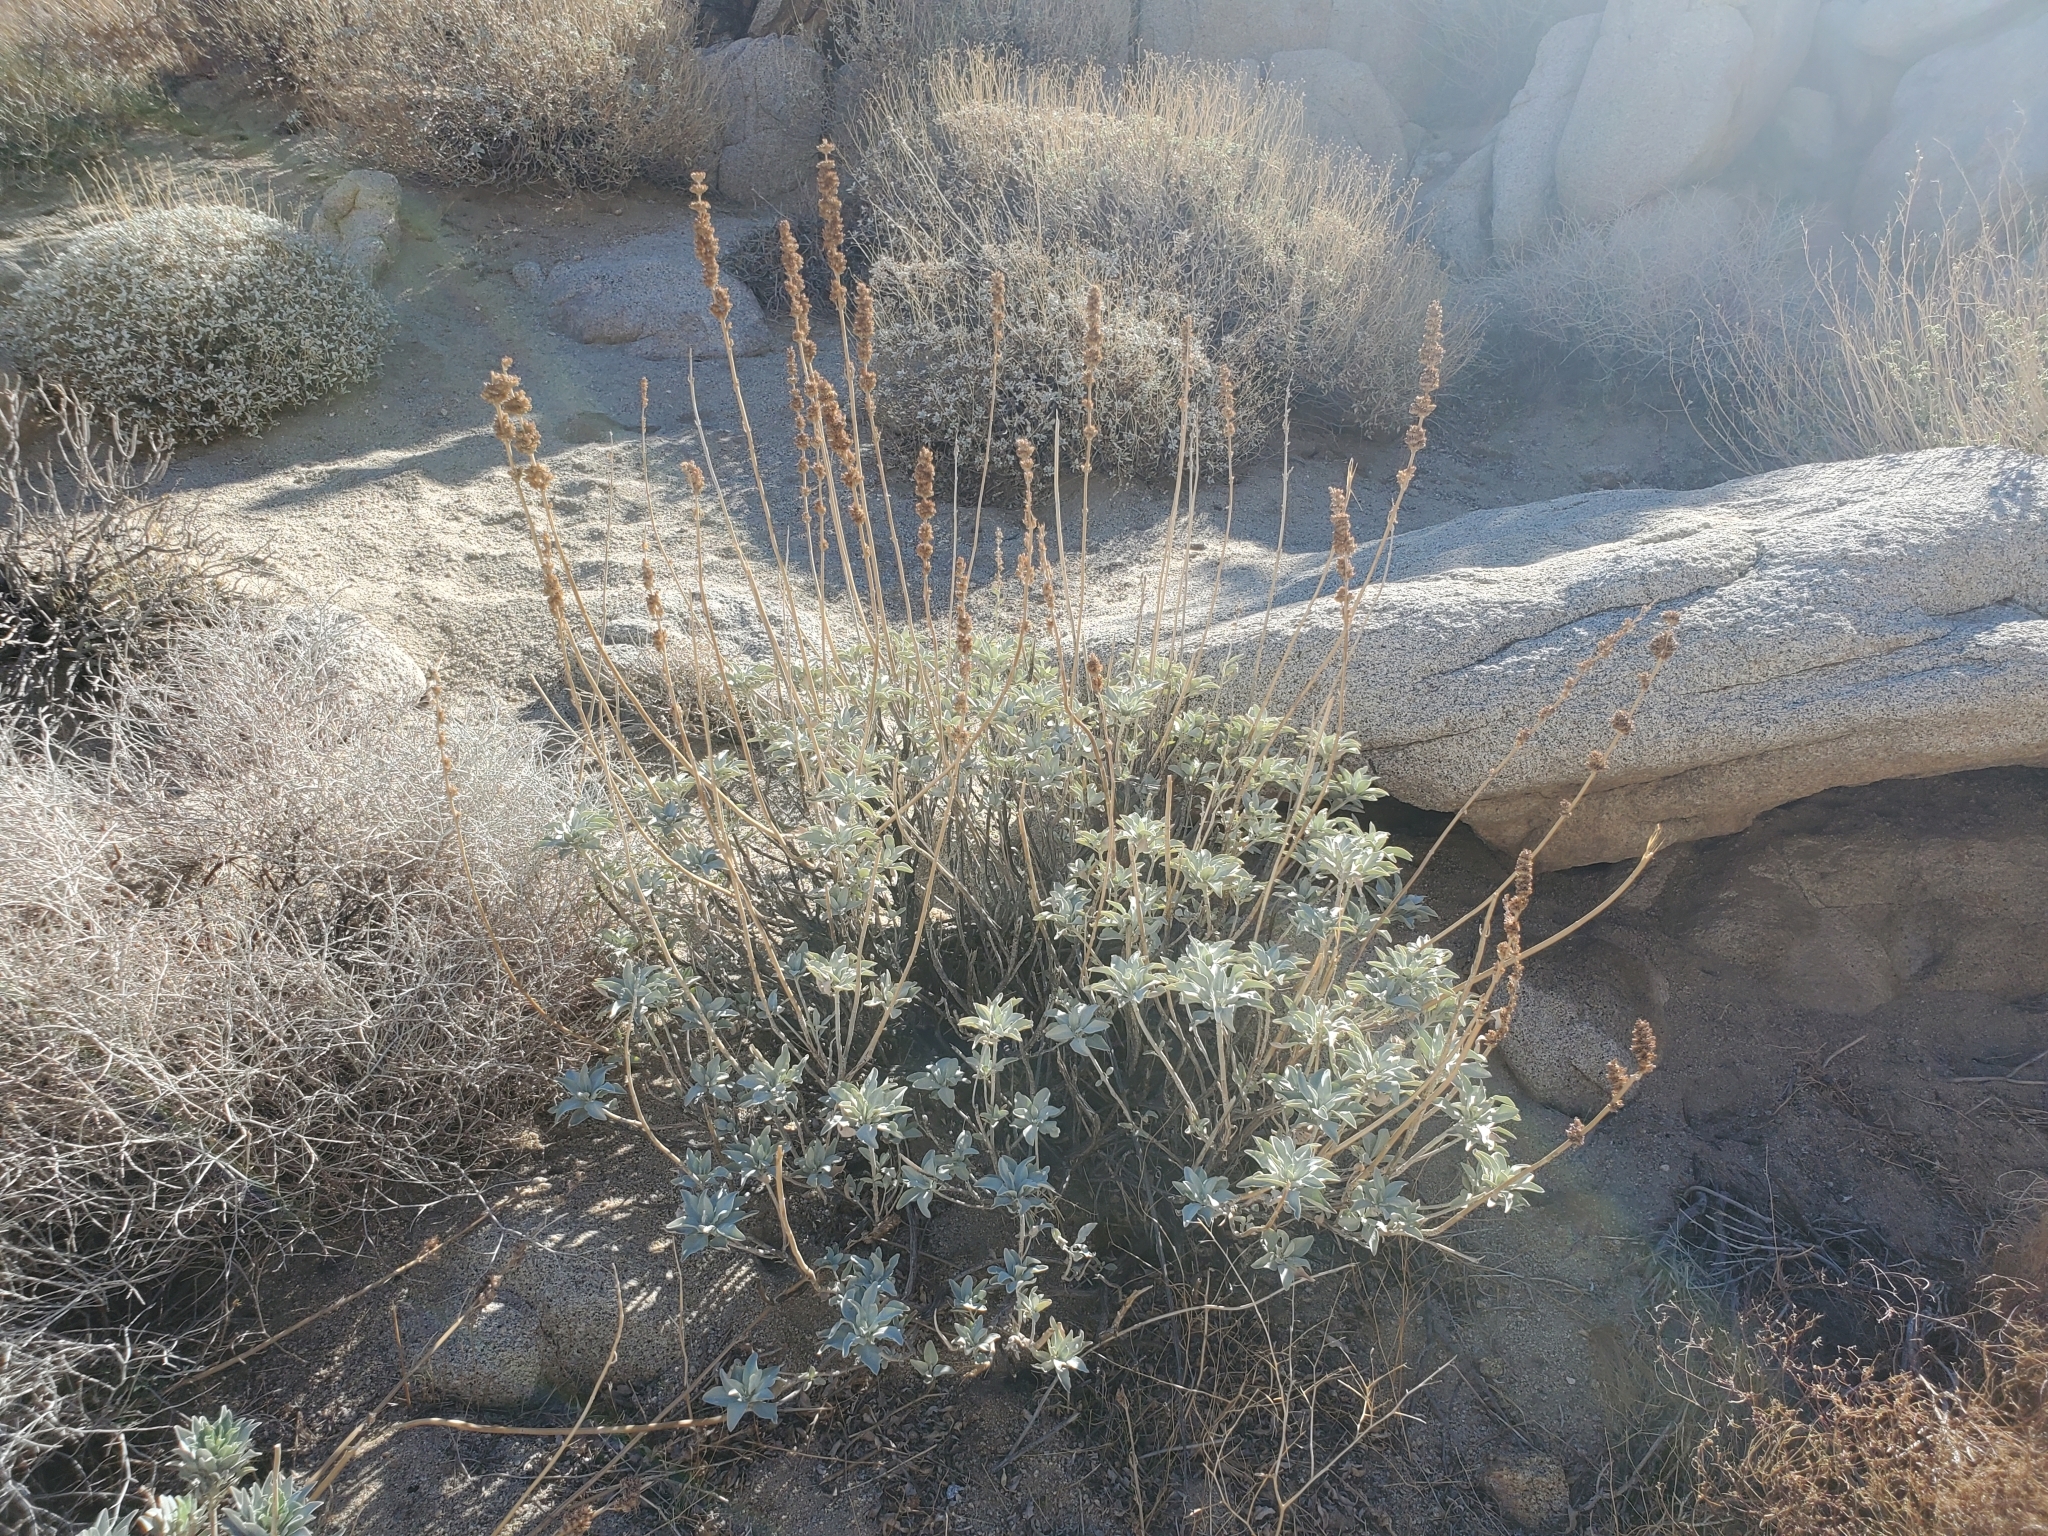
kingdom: Plantae
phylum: Tracheophyta
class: Magnoliopsida
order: Lamiales
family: Lamiaceae
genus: Salvia
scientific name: Salvia apiana
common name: White sage
